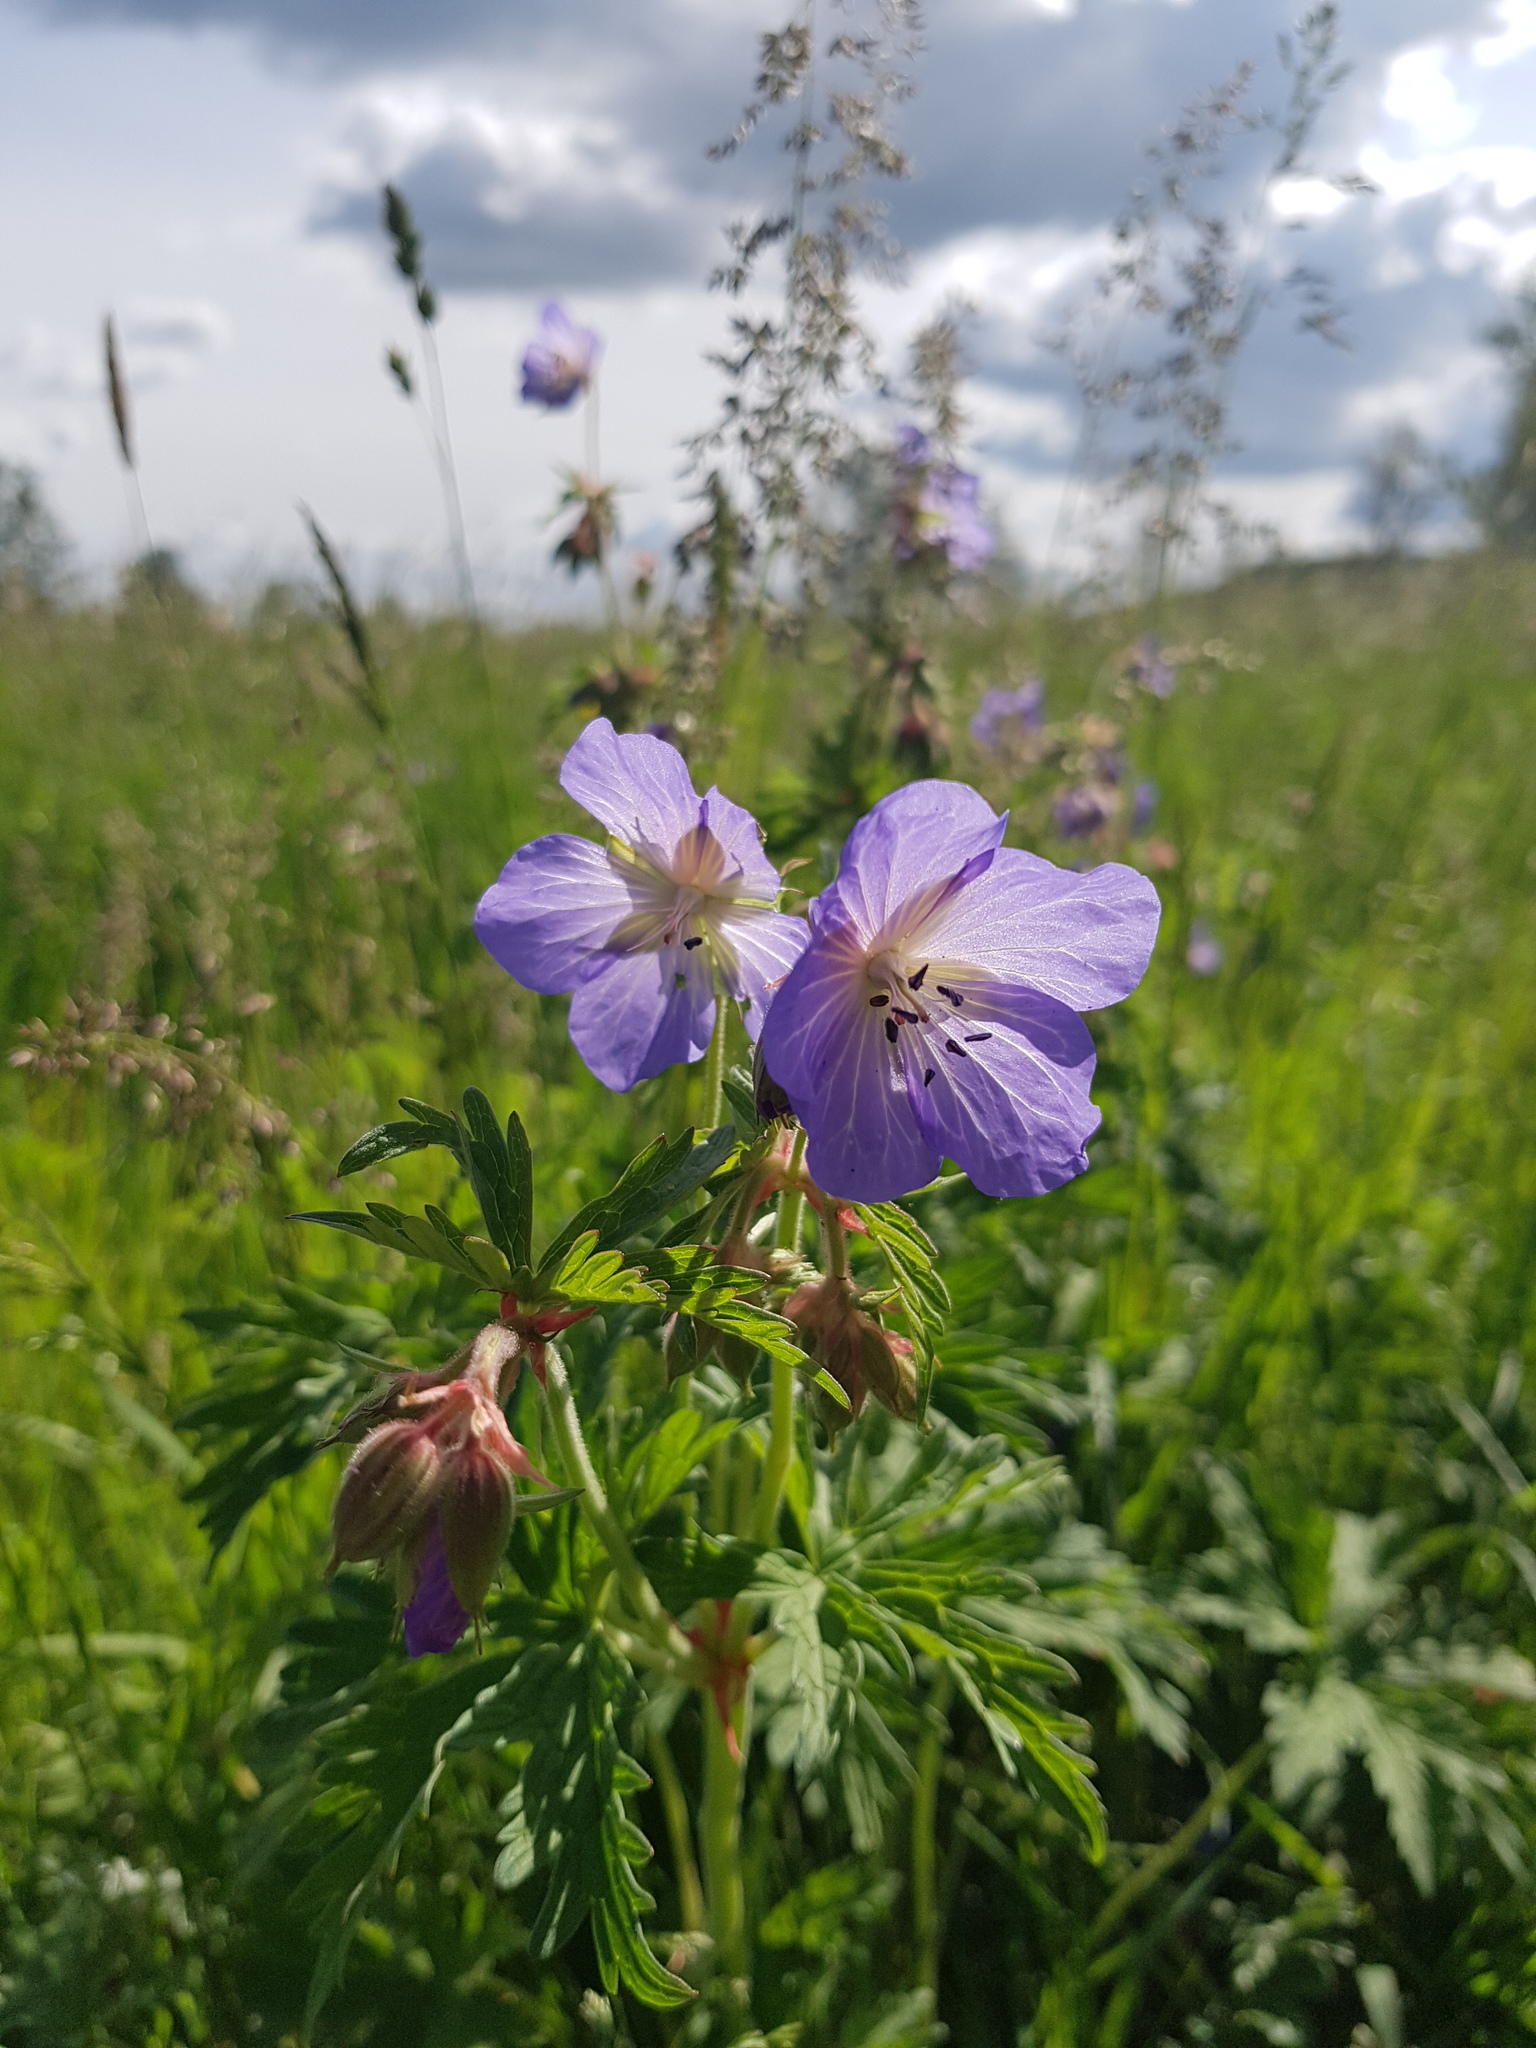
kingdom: Plantae
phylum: Tracheophyta
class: Magnoliopsida
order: Geraniales
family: Geraniaceae
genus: Geranium
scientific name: Geranium pratense
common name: Meadow crane's-bill
